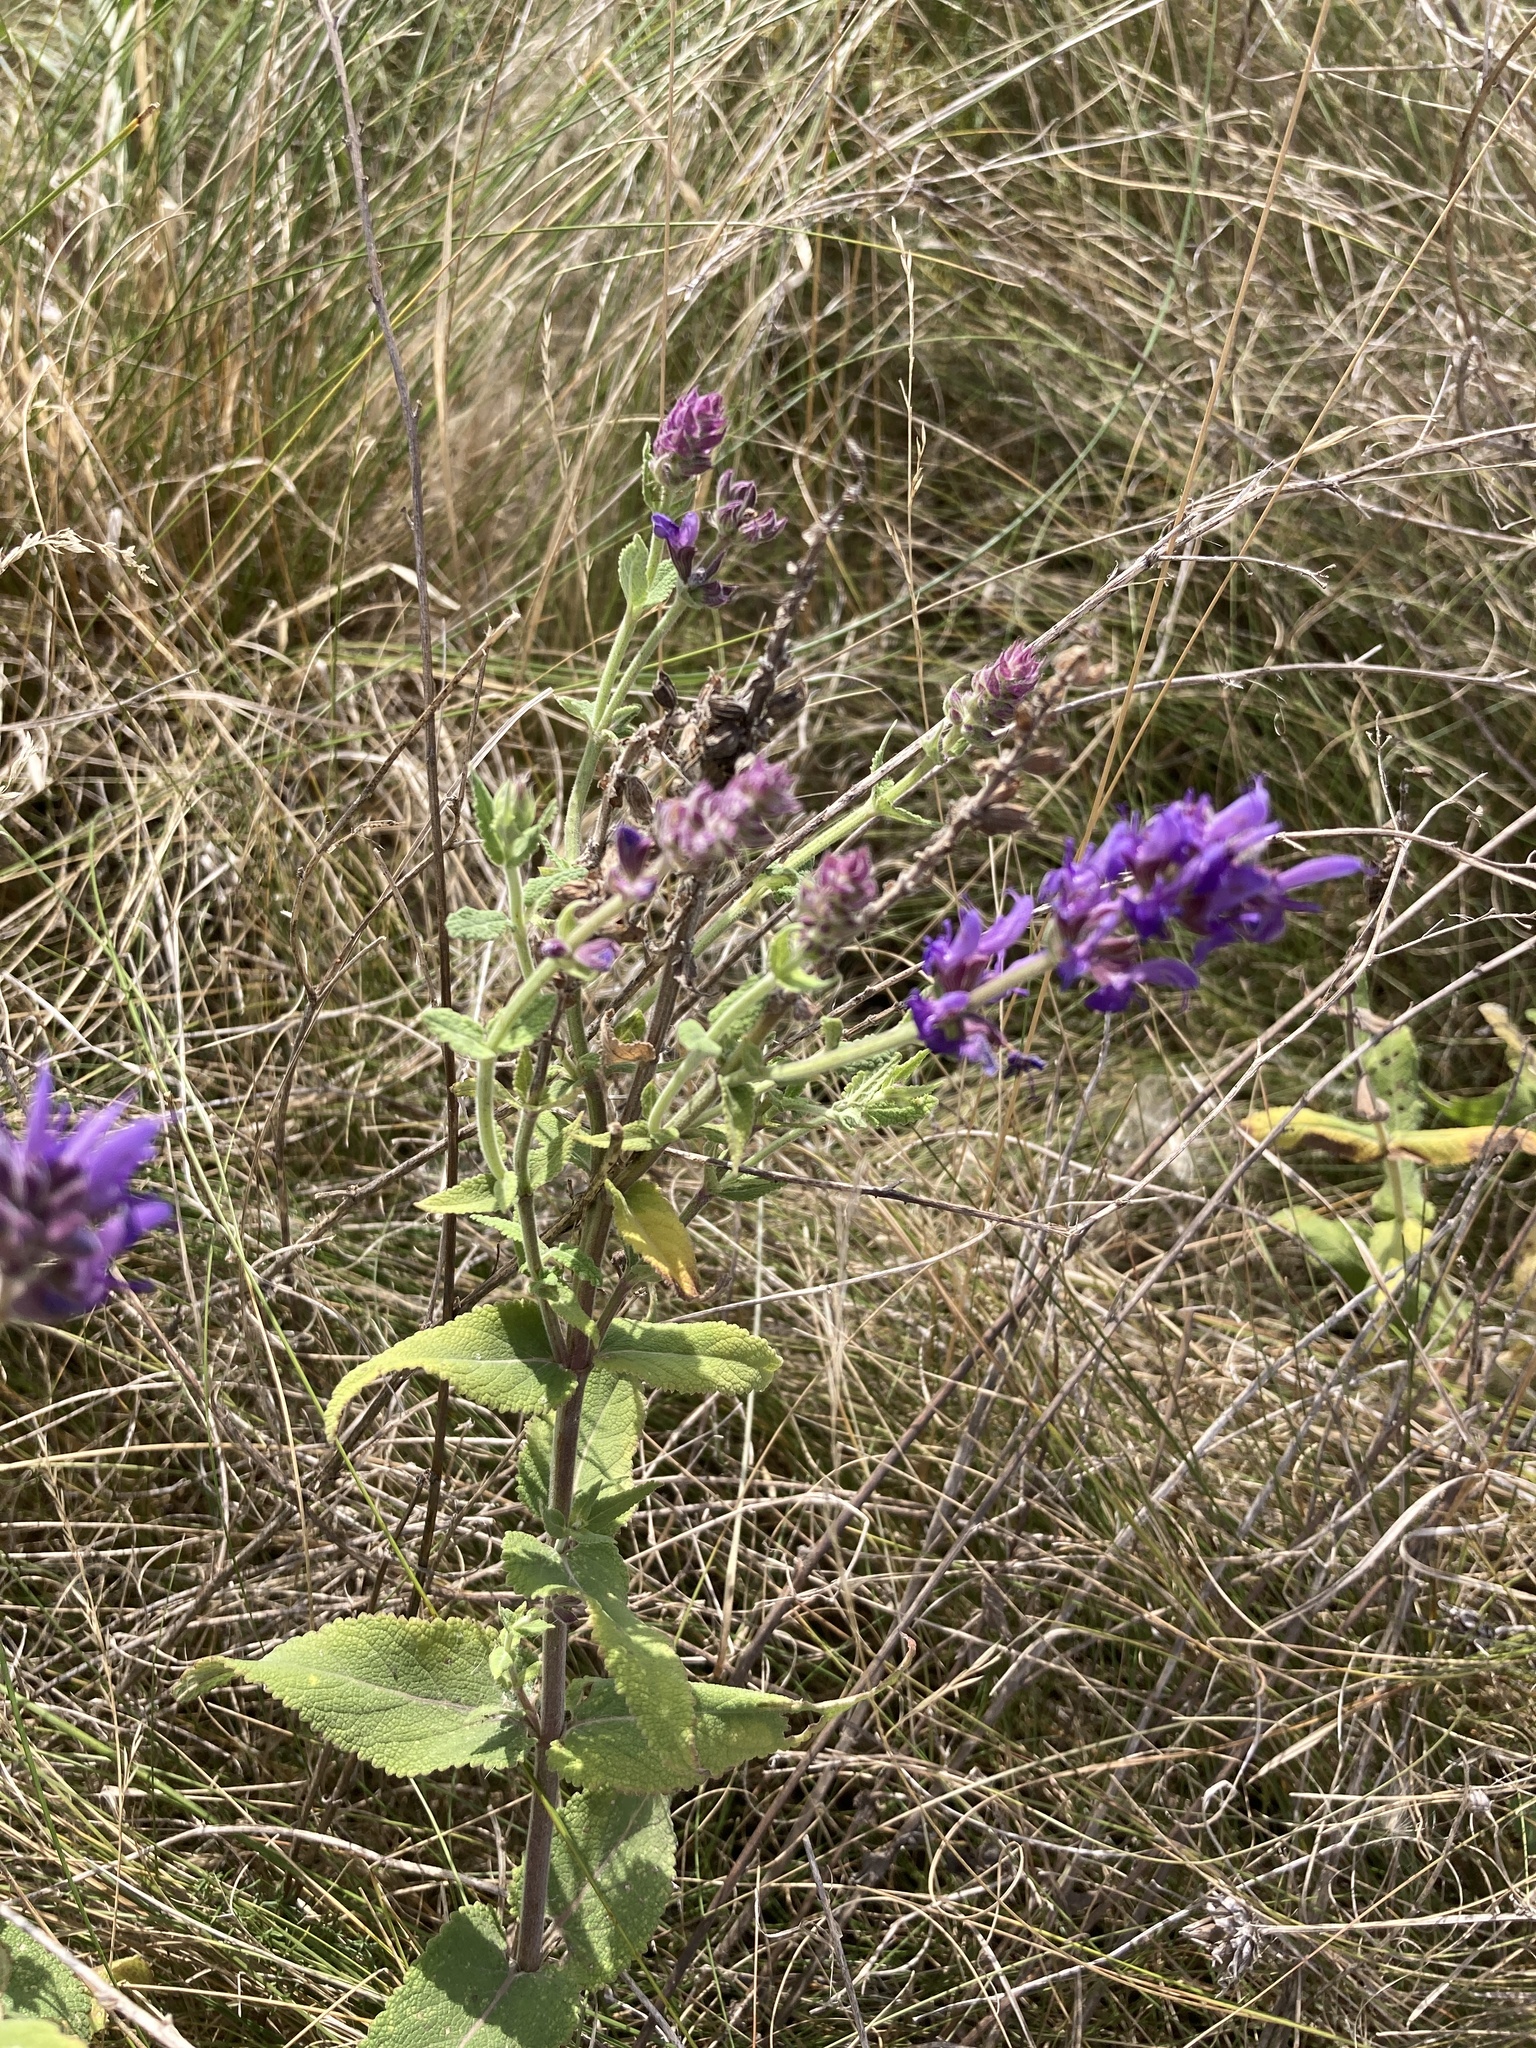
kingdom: Plantae
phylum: Tracheophyta
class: Magnoliopsida
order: Lamiales
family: Lamiaceae
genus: Salvia
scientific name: Salvia nemorosa
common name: Balkan clary
